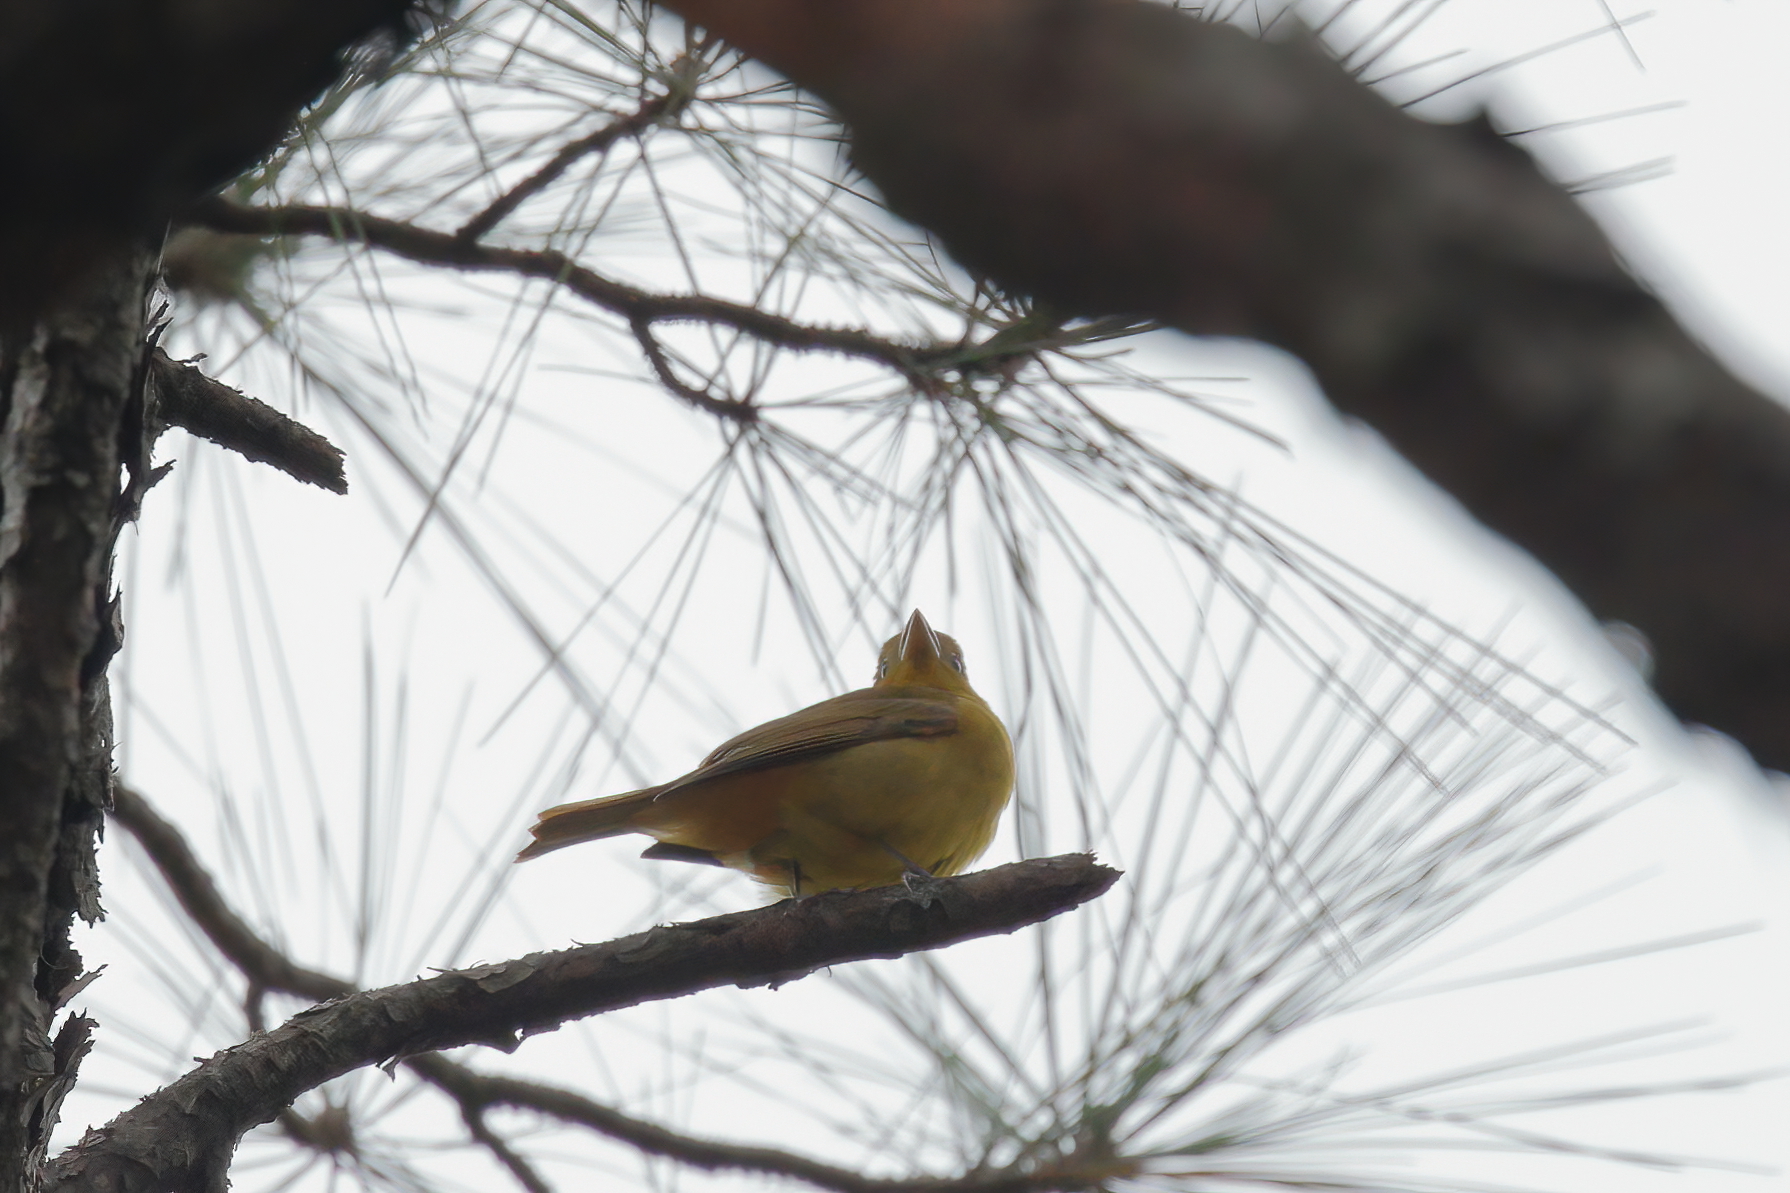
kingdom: Animalia
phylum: Chordata
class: Aves
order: Passeriformes
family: Cardinalidae
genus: Piranga
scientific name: Piranga rubra
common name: Summer tanager
